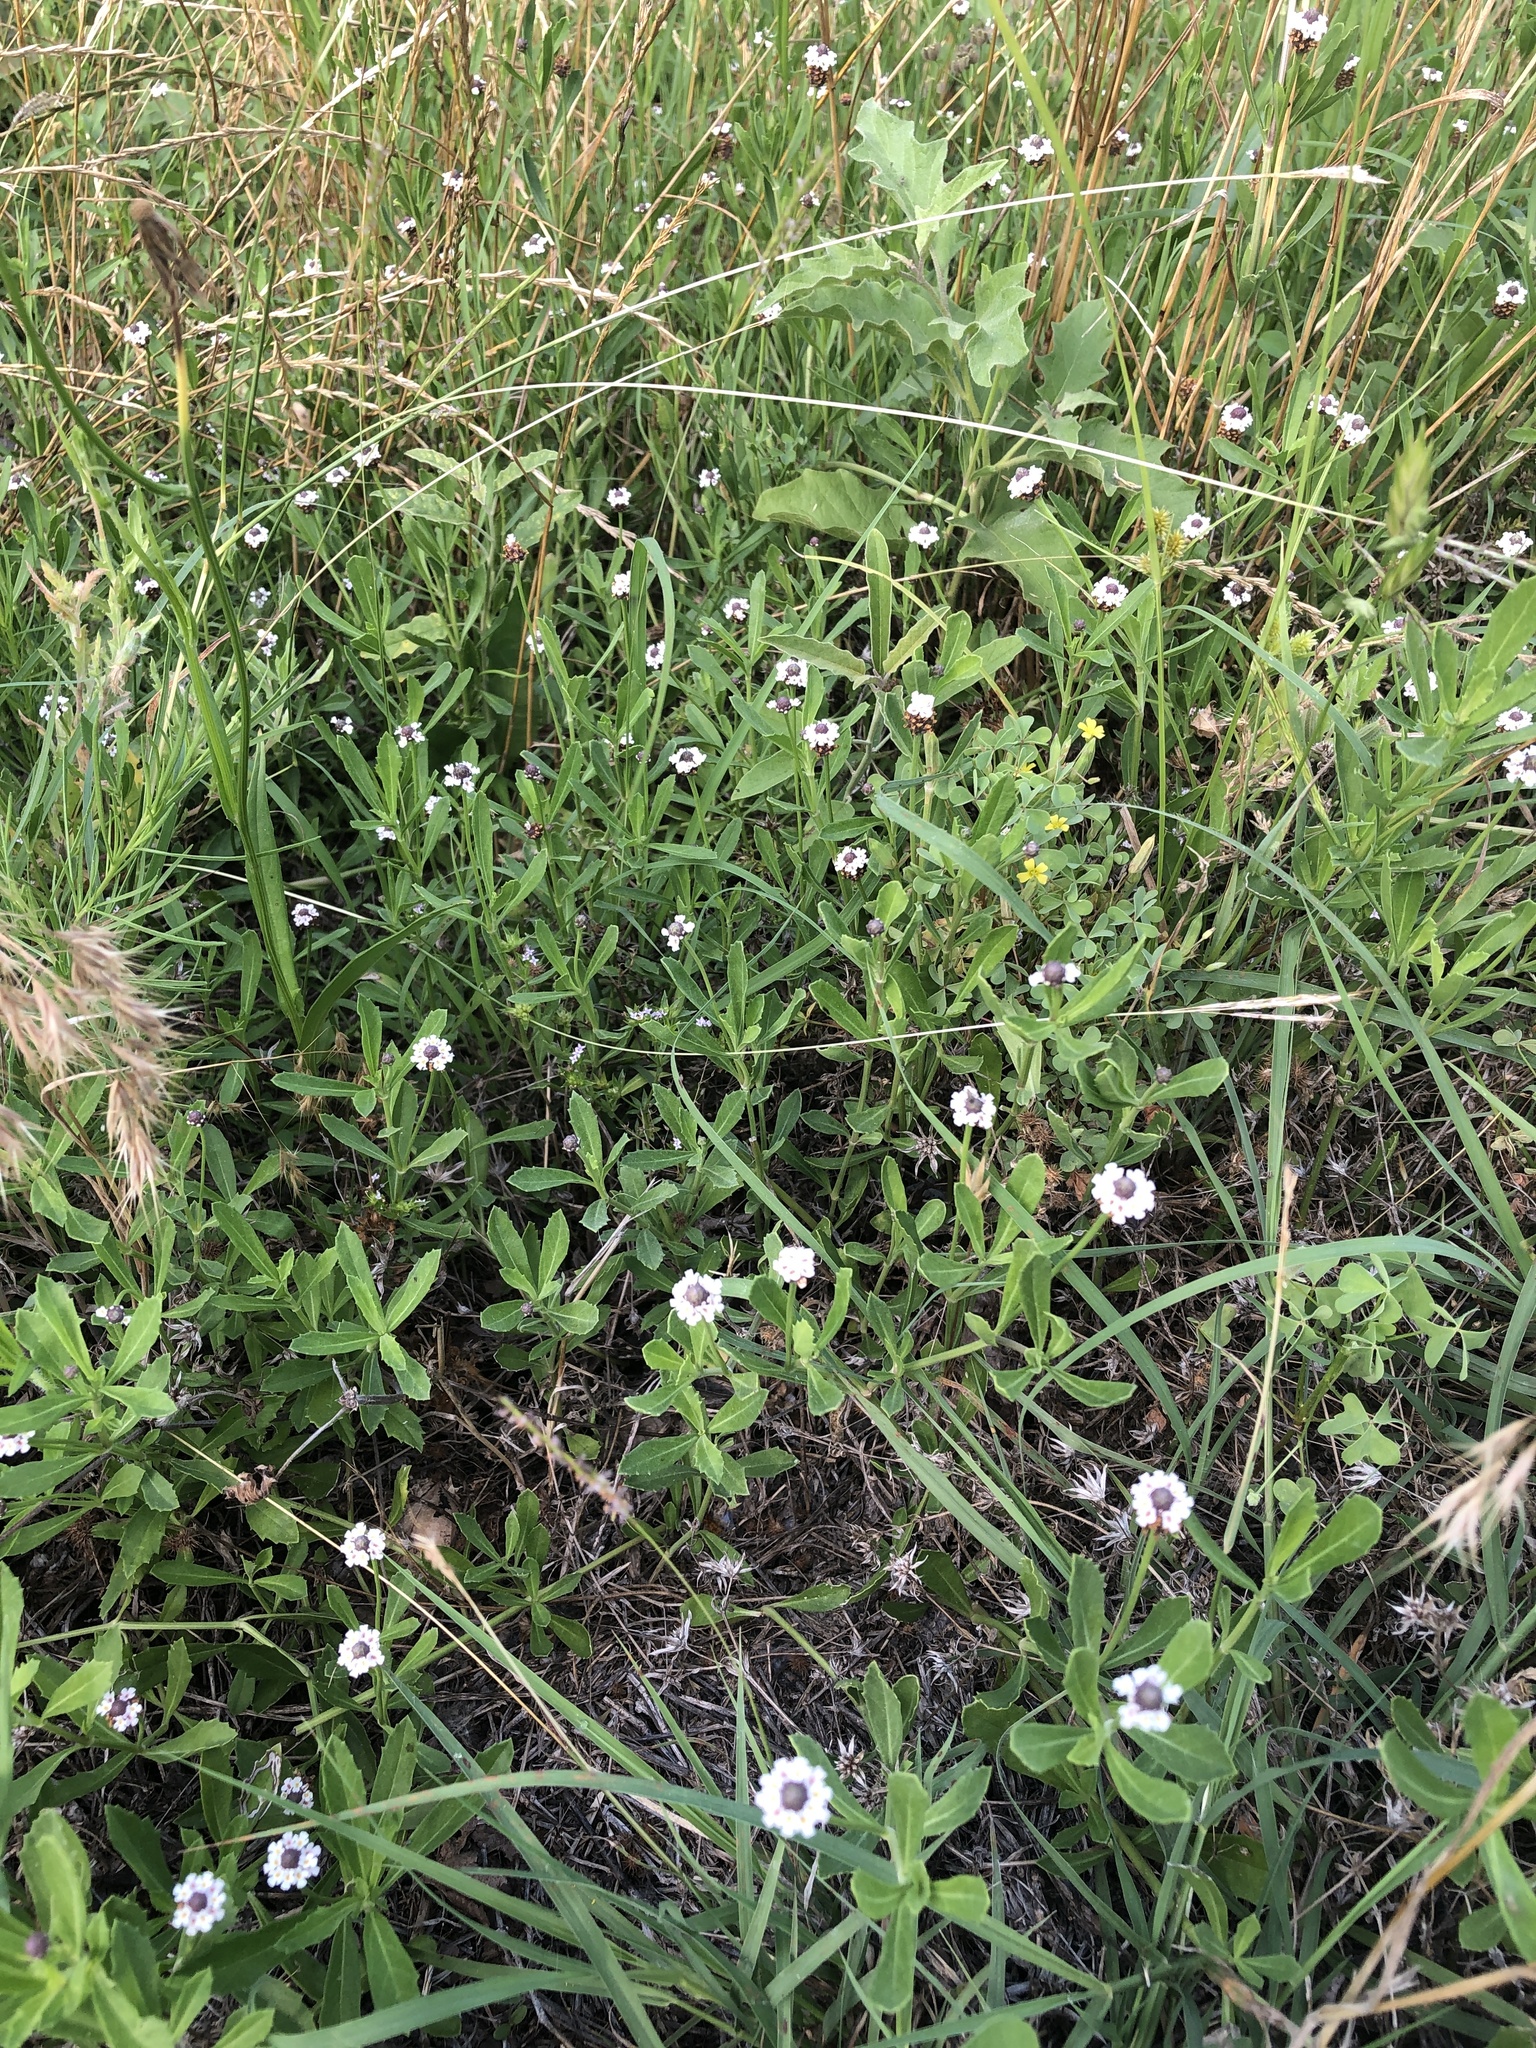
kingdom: Plantae
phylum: Tracheophyta
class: Magnoliopsida
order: Lamiales
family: Verbenaceae
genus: Phyla
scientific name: Phyla nodiflora
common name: Frogfruit
